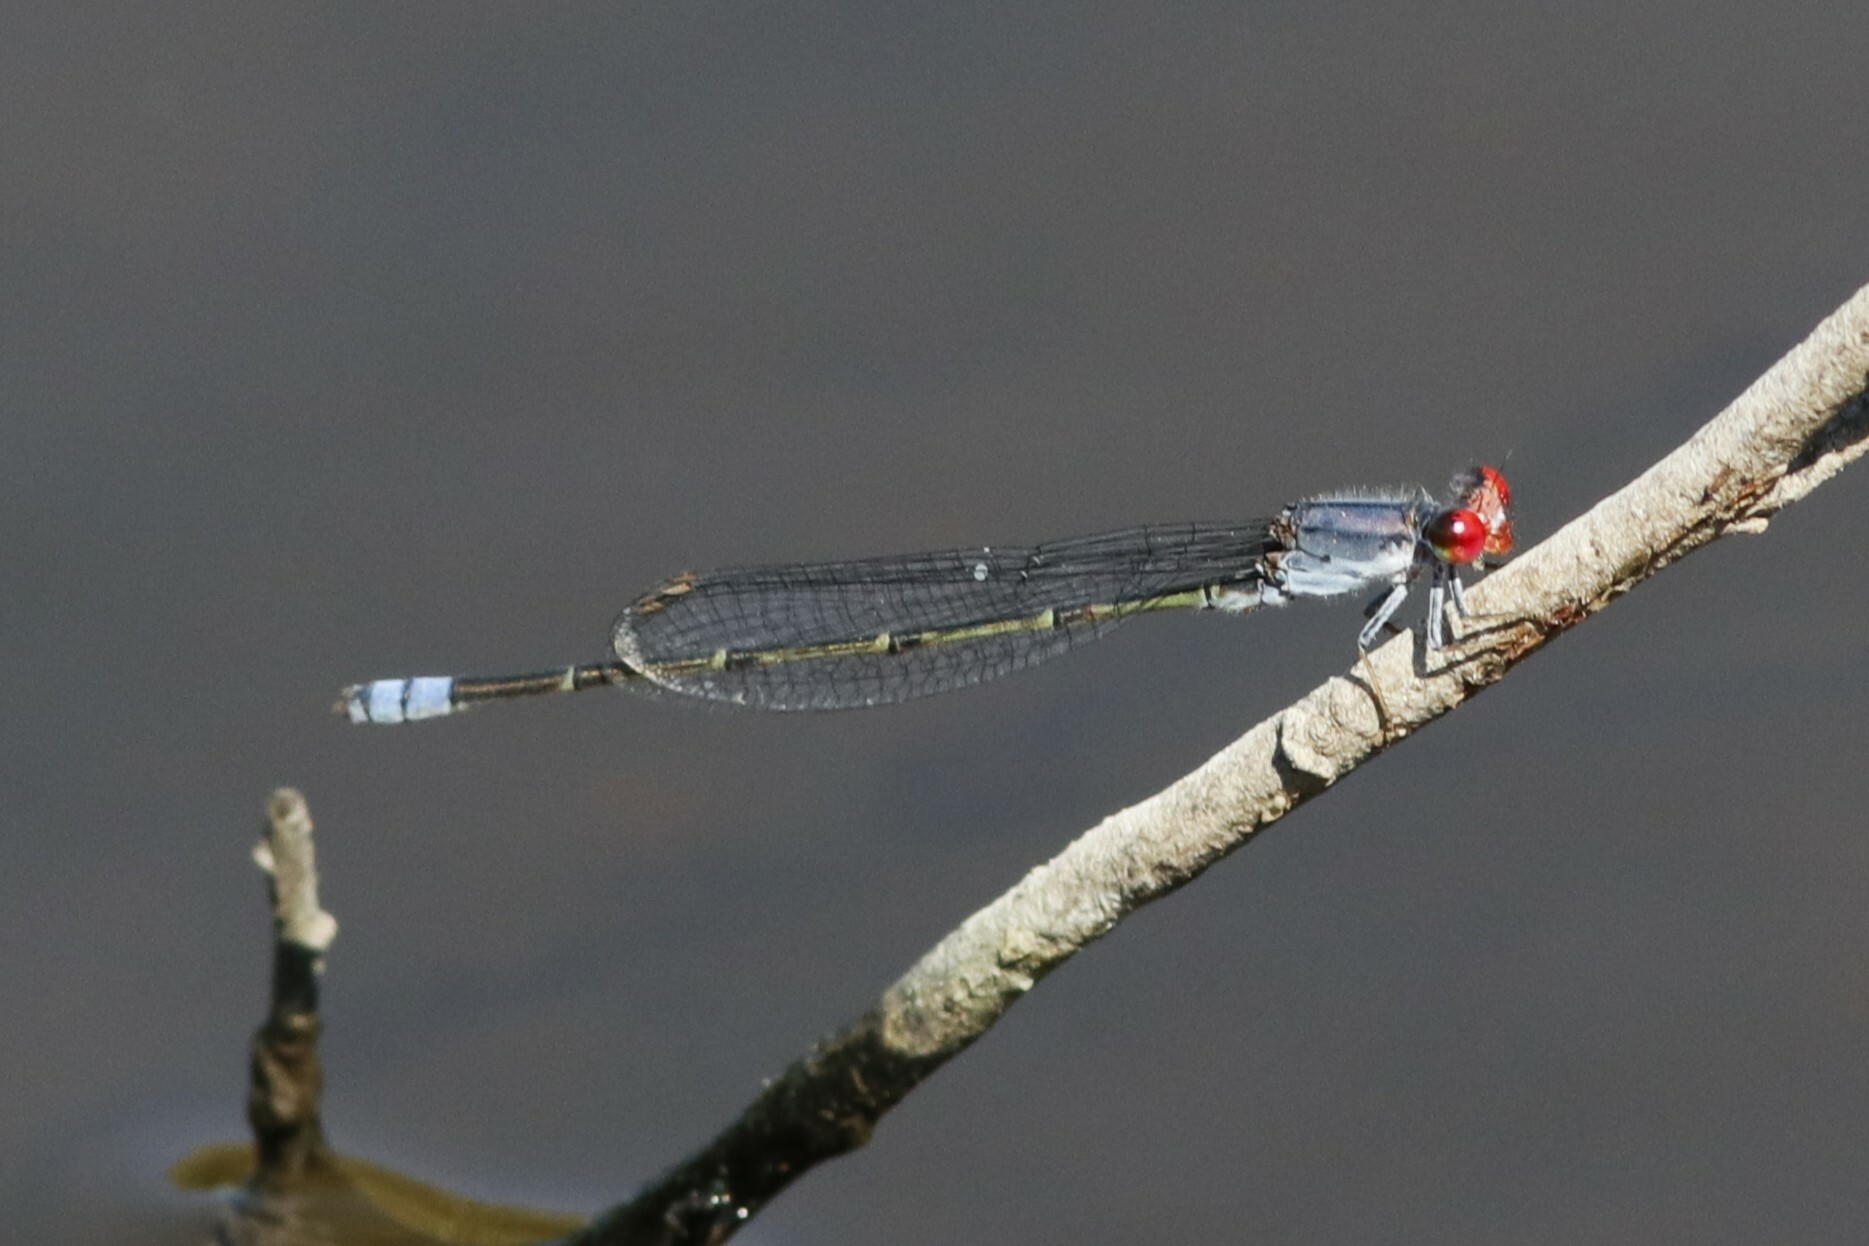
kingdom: Animalia
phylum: Arthropoda
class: Insecta
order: Odonata
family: Coenagrionidae
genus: Pseudagrion
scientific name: Pseudagrion sublacteum
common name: Cherry-eye sprite
